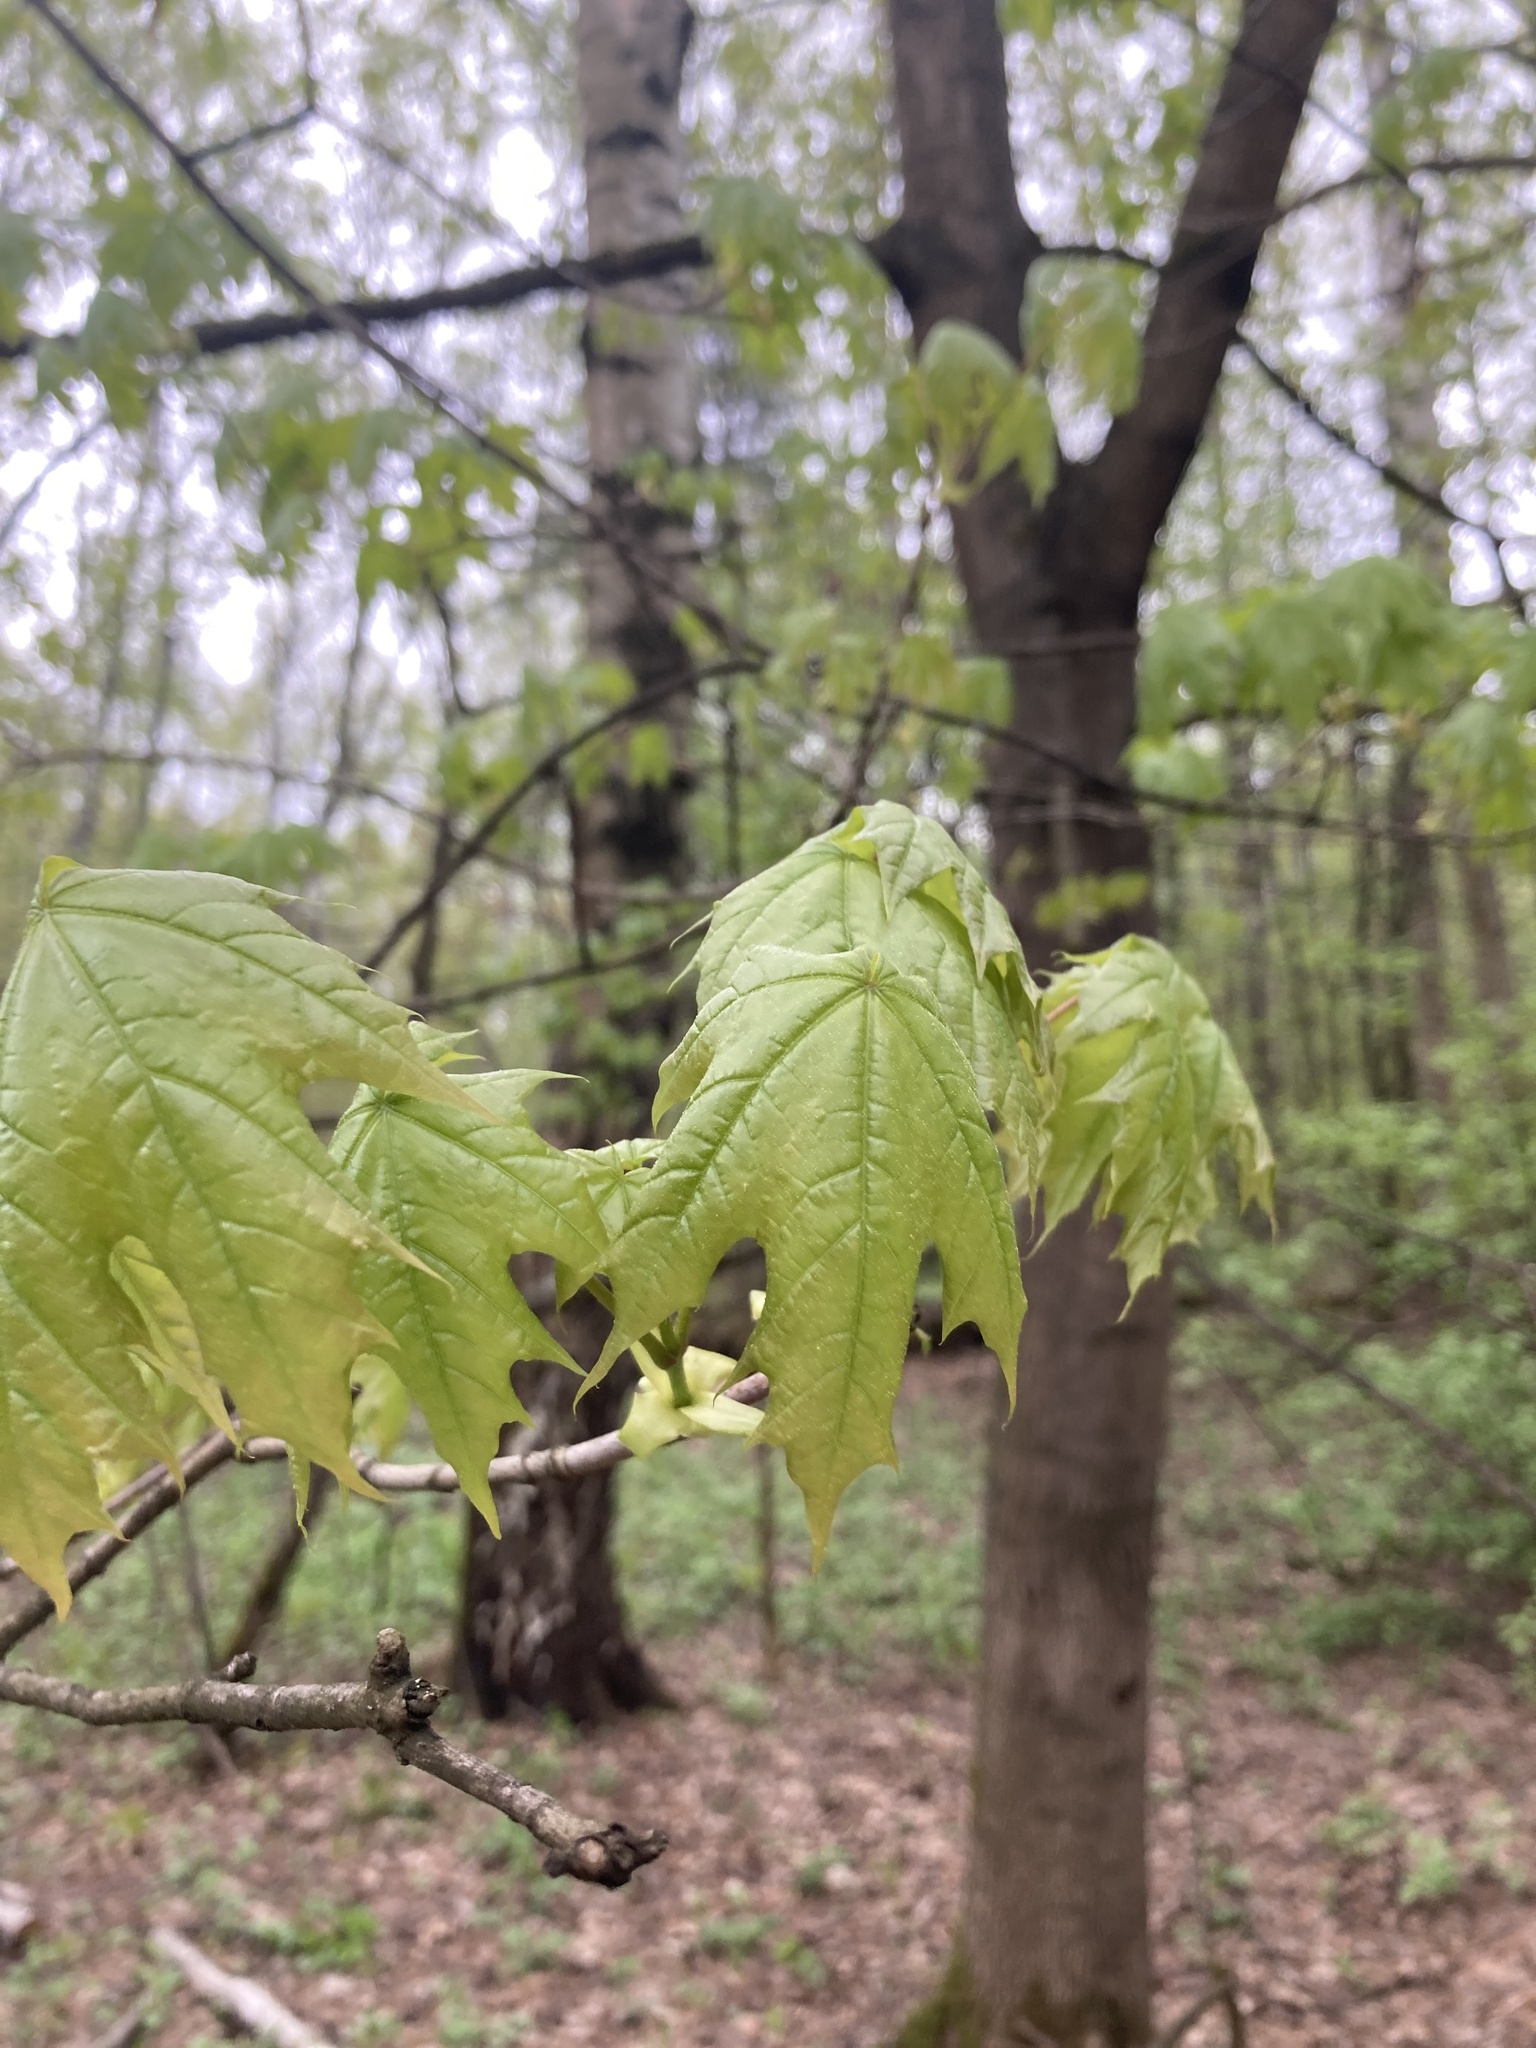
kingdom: Plantae
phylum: Tracheophyta
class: Magnoliopsida
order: Sapindales
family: Sapindaceae
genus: Acer
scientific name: Acer platanoides
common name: Norway maple
